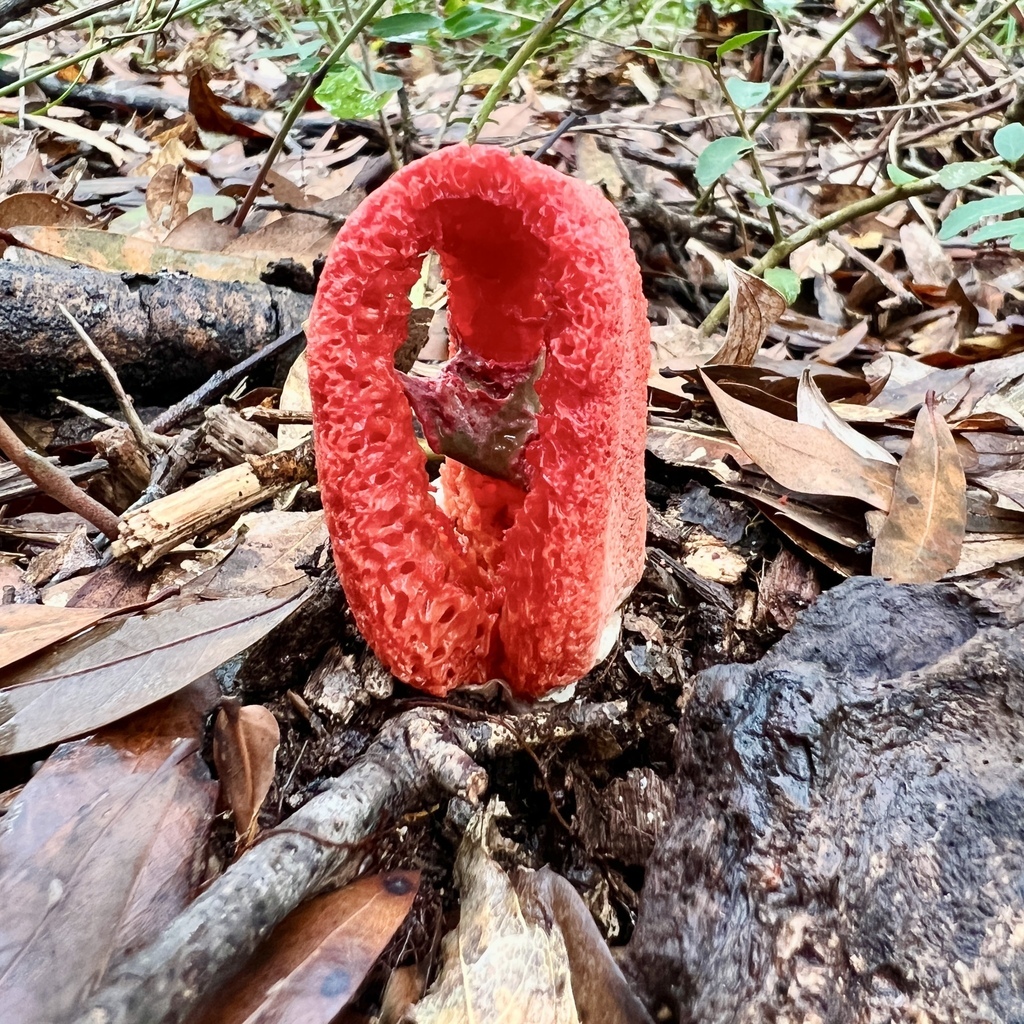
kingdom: Fungi
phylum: Basidiomycota
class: Agaricomycetes
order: Phallales
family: Phallaceae
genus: Clathrus
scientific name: Clathrus columnatus
